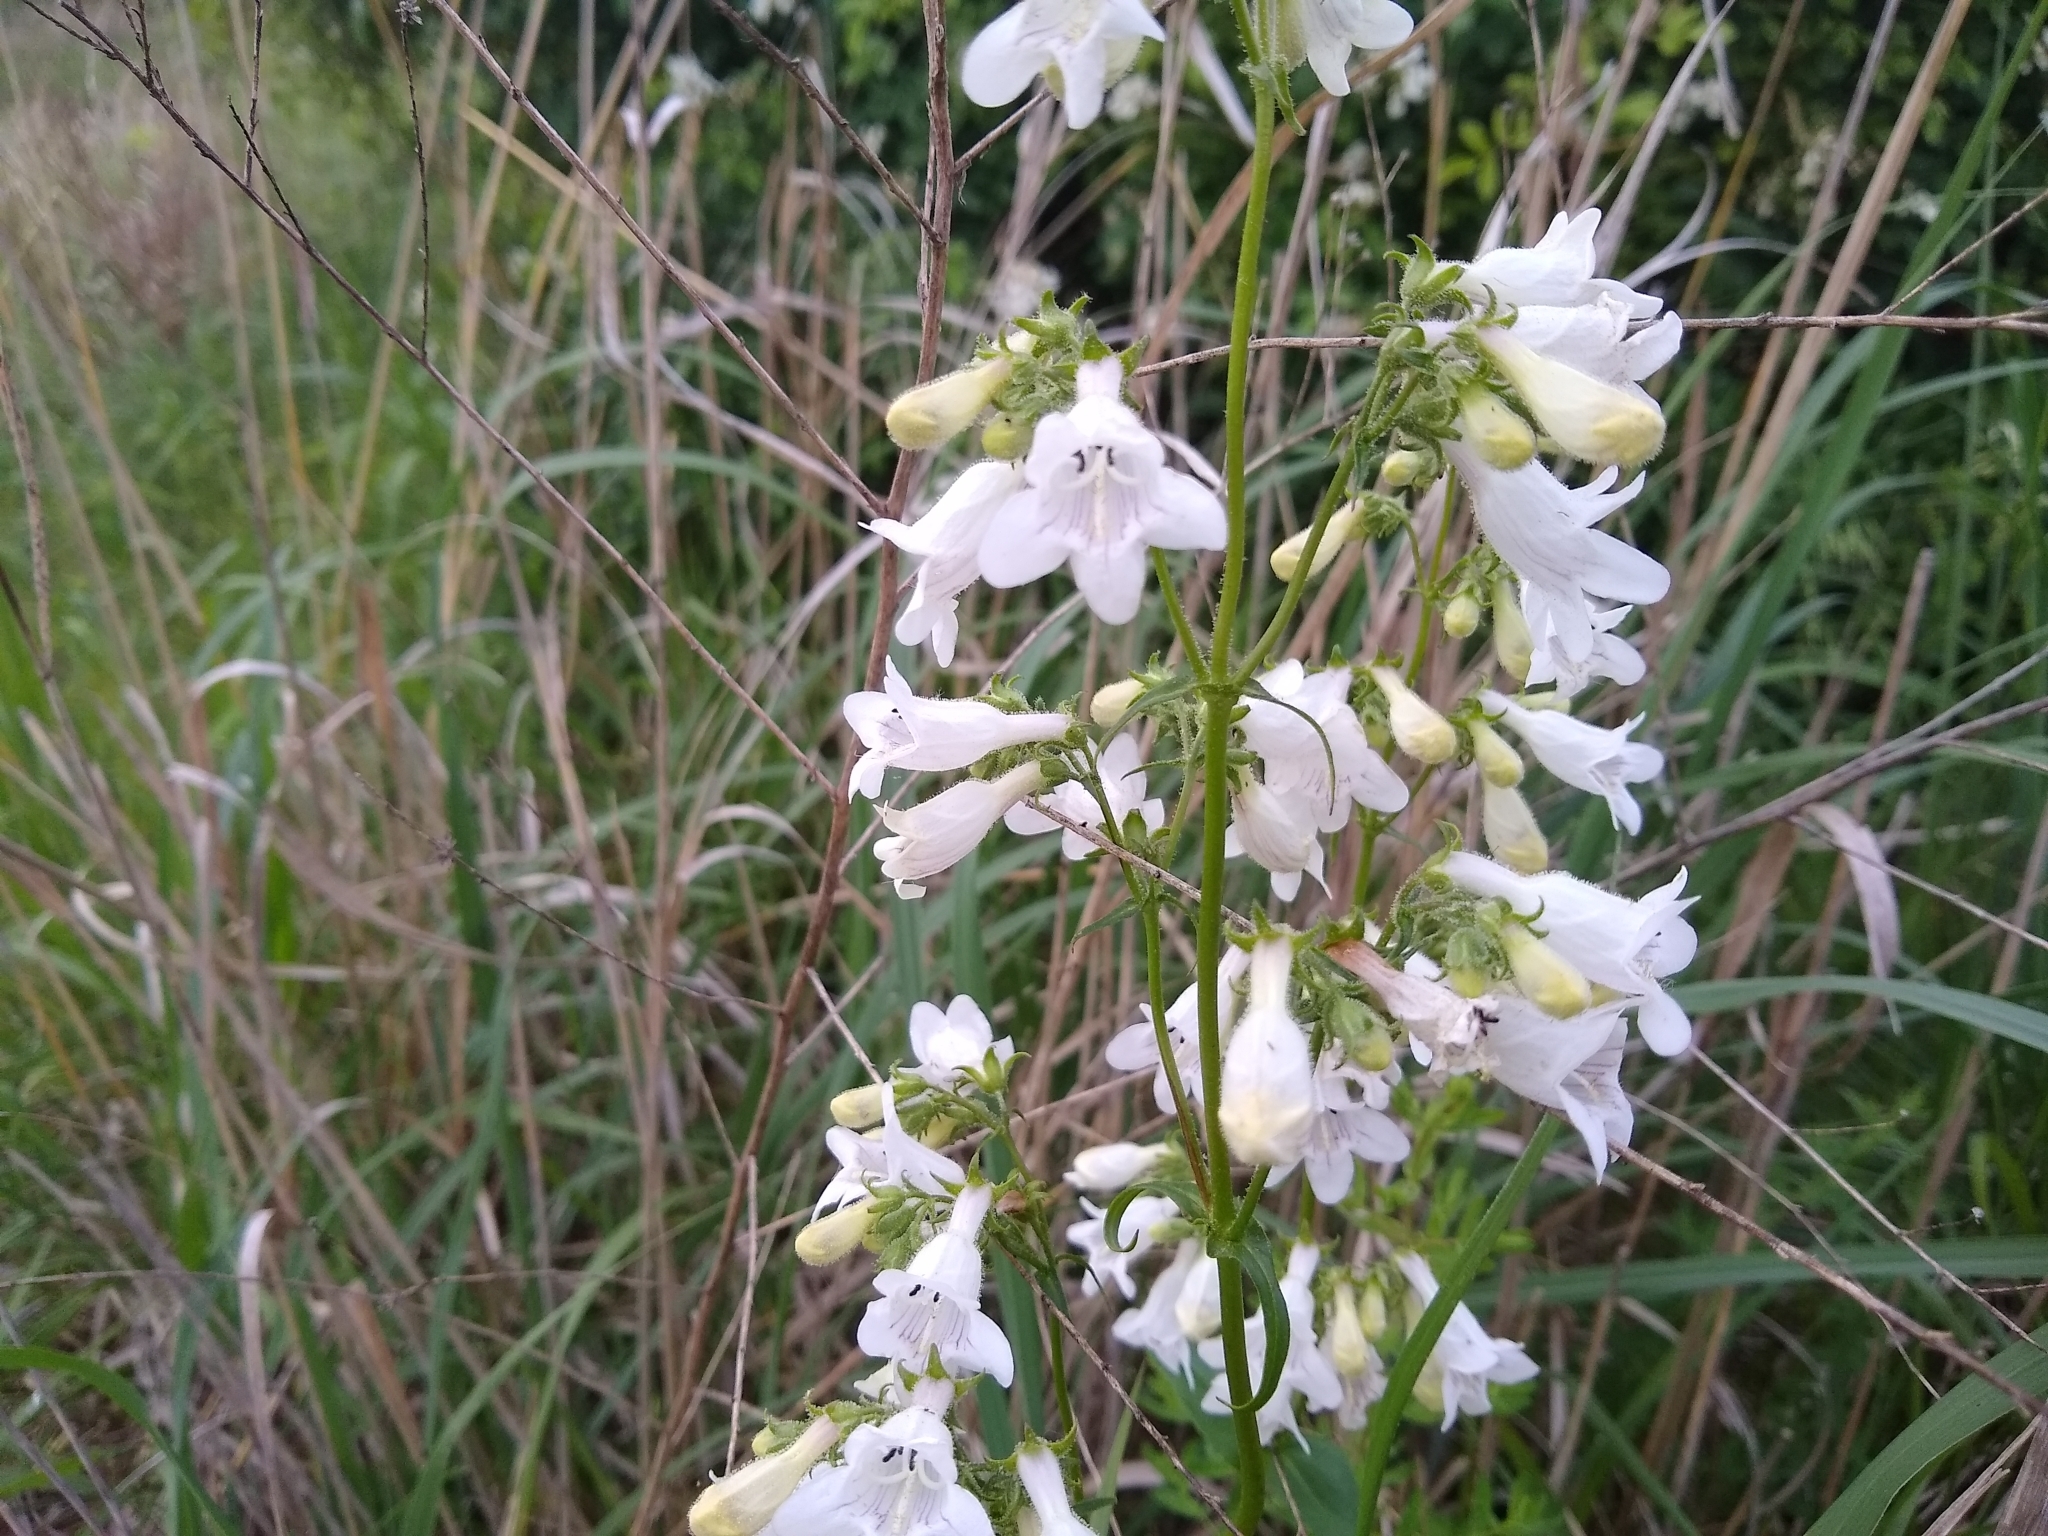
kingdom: Plantae
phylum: Tracheophyta
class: Magnoliopsida
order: Lamiales
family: Plantaginaceae
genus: Penstemon
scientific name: Penstemon digitalis
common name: Foxglove beardtongue
